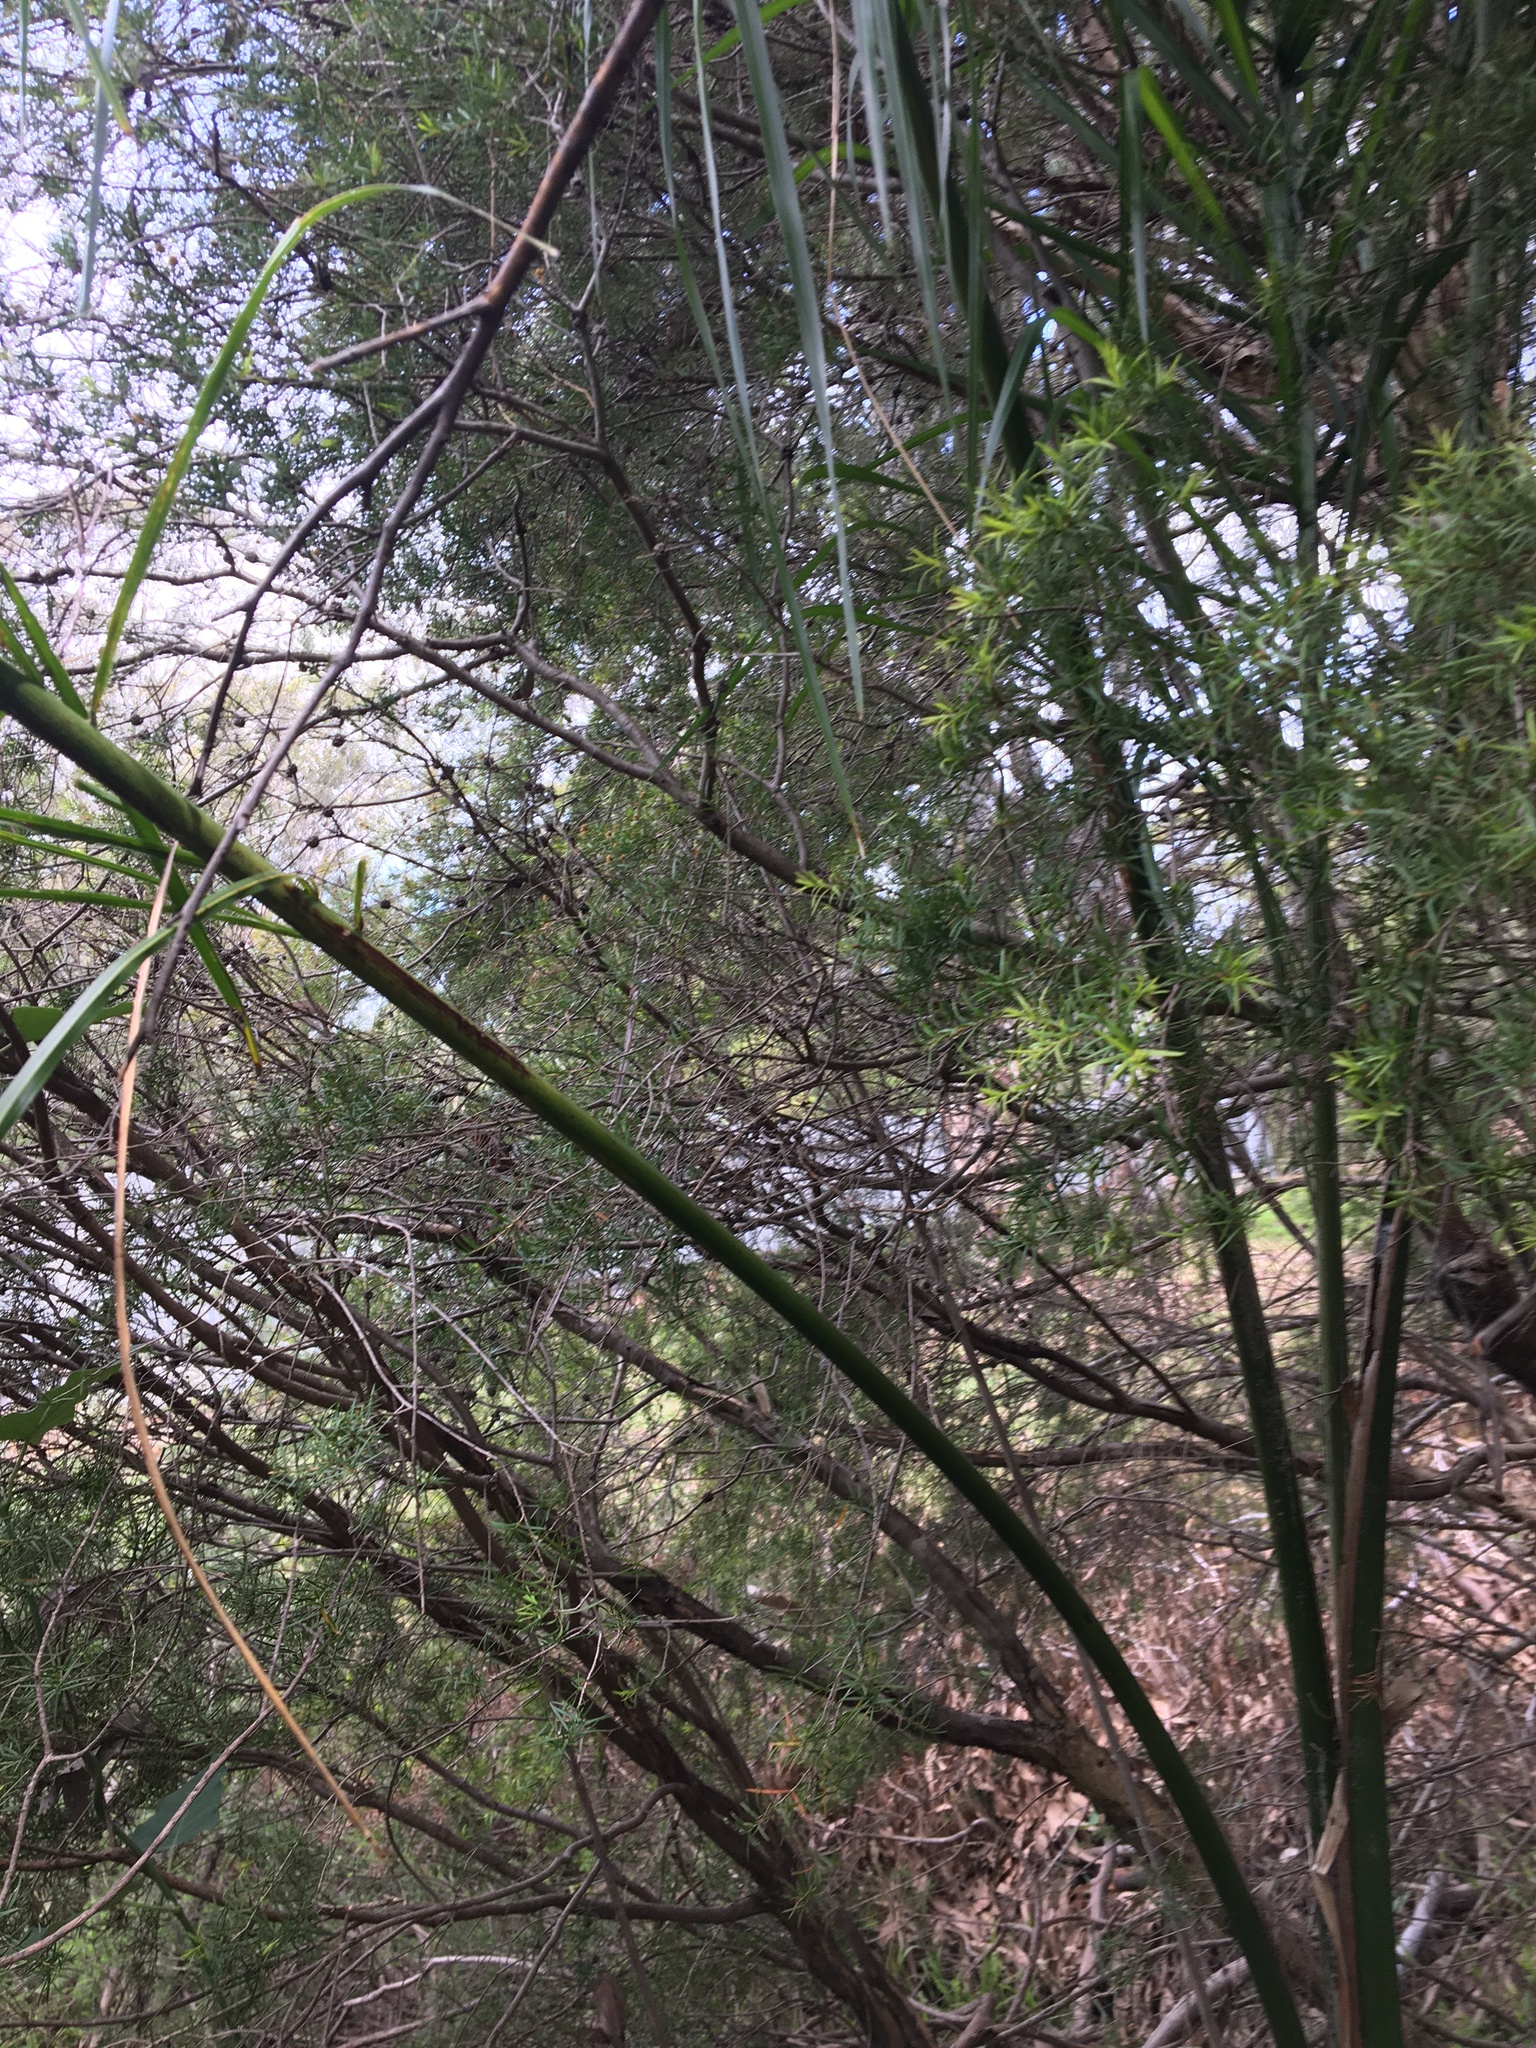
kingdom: Plantae
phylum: Tracheophyta
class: Liliopsida
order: Arecales
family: Arecaceae
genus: Syagrus
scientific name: Syagrus romanzoffiana
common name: Queen palm
